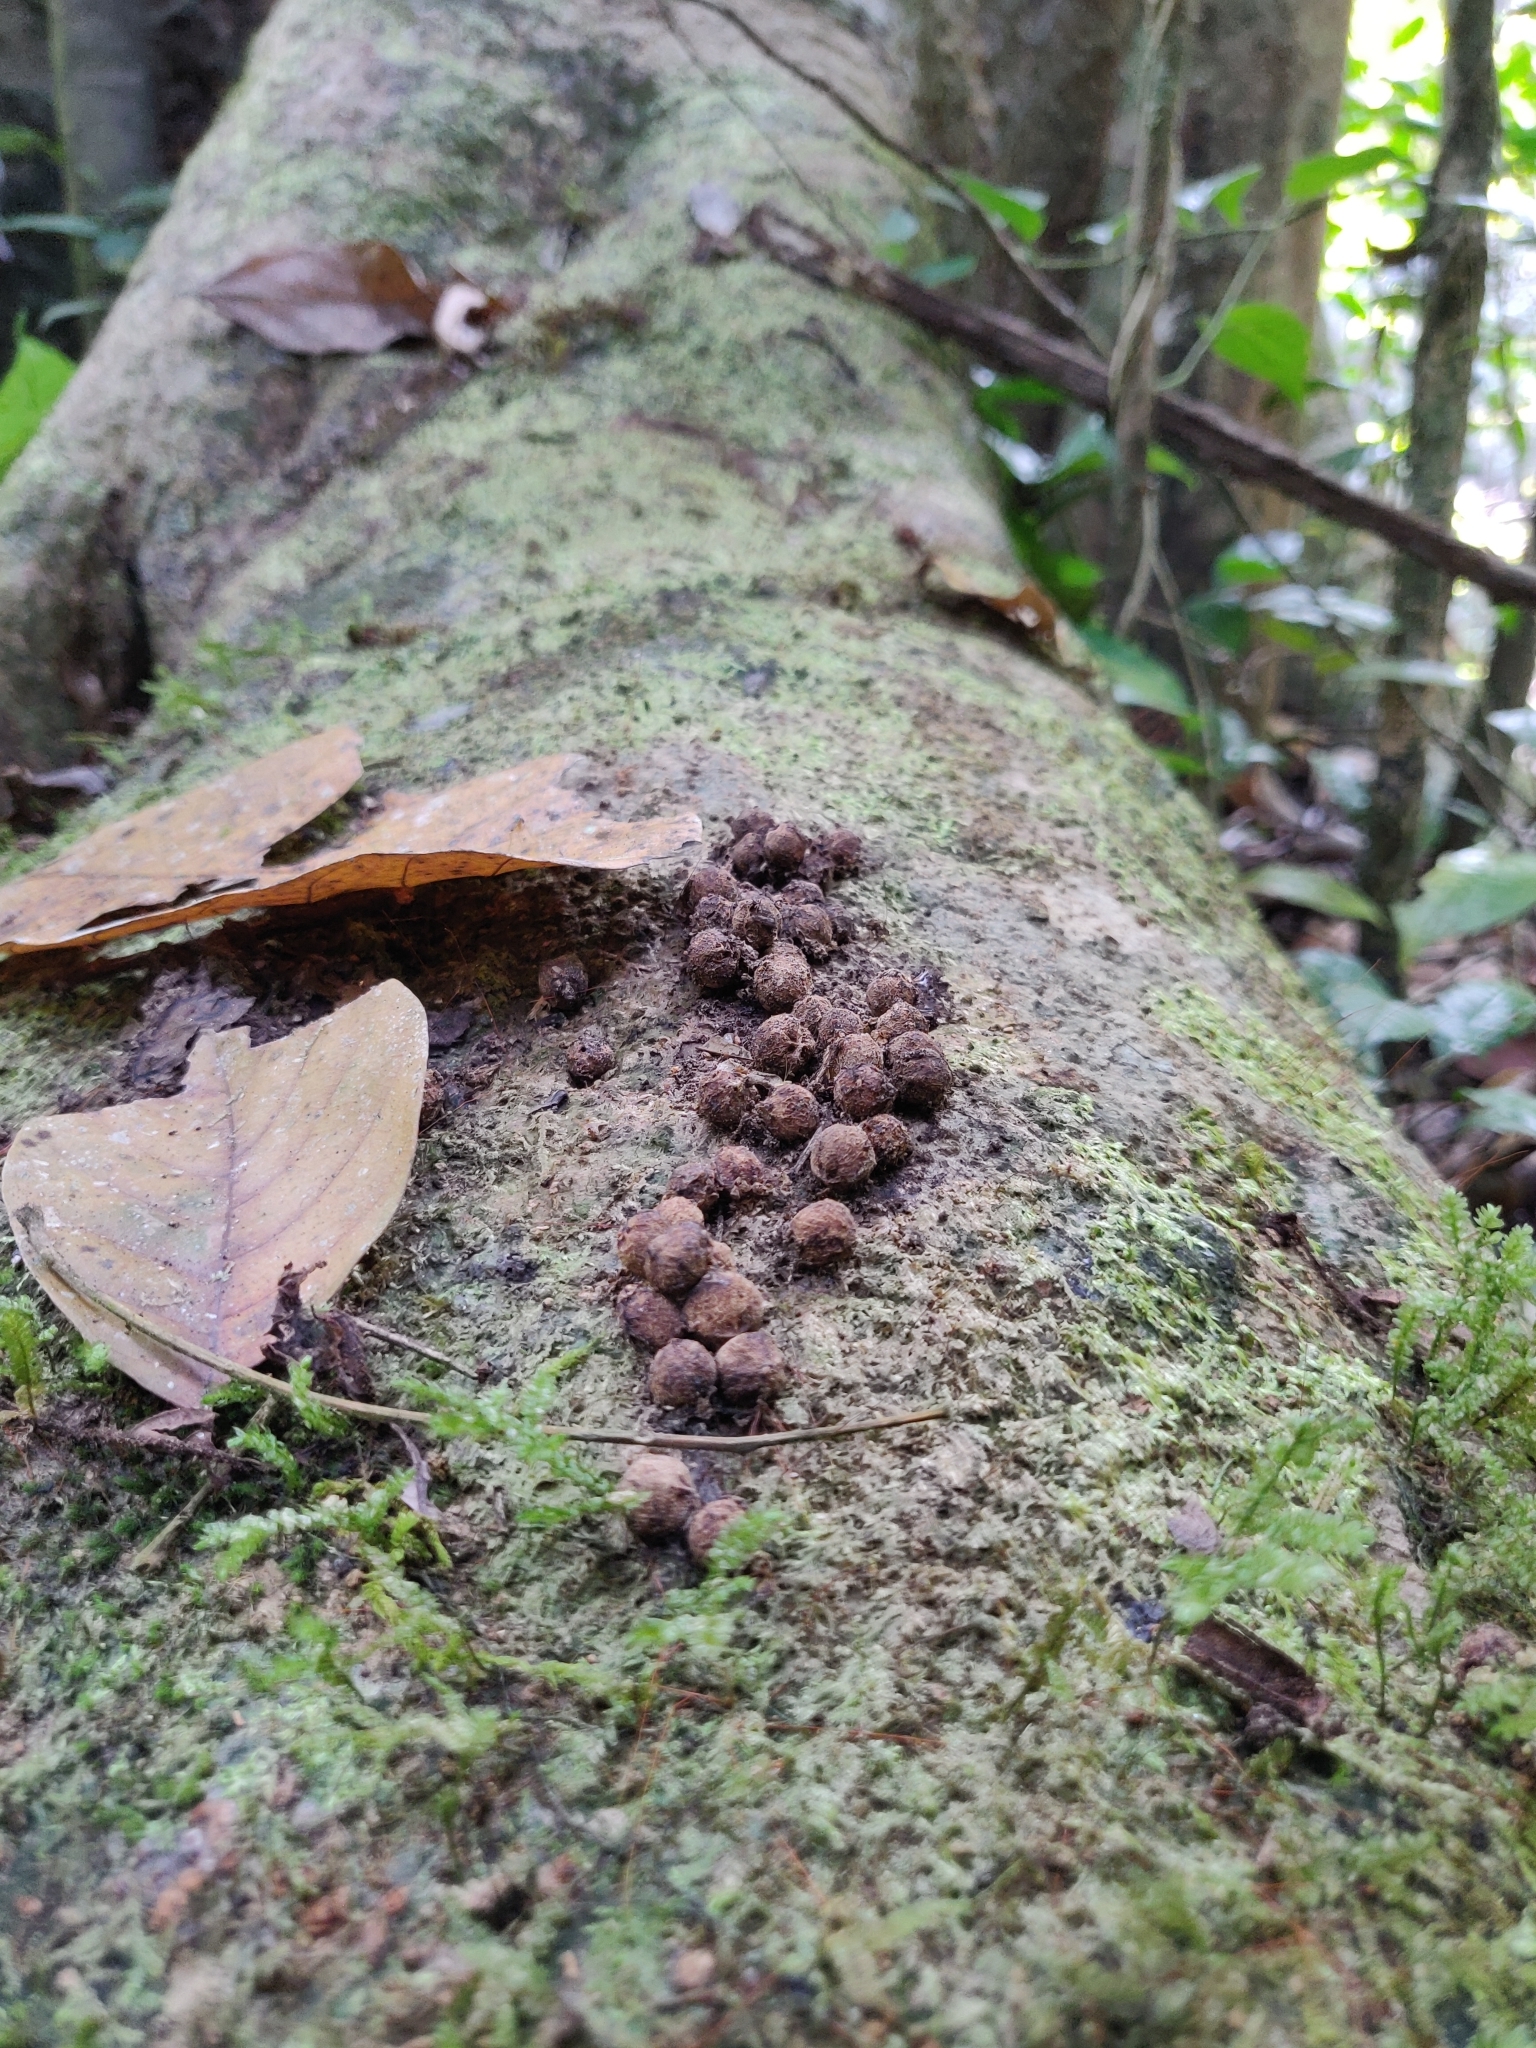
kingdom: Animalia
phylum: Chordata
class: Mammalia
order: Carnivora
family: Viverridae
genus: Paradoxurus
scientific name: Paradoxurus jerdoni
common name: Jerdon's palm civet
